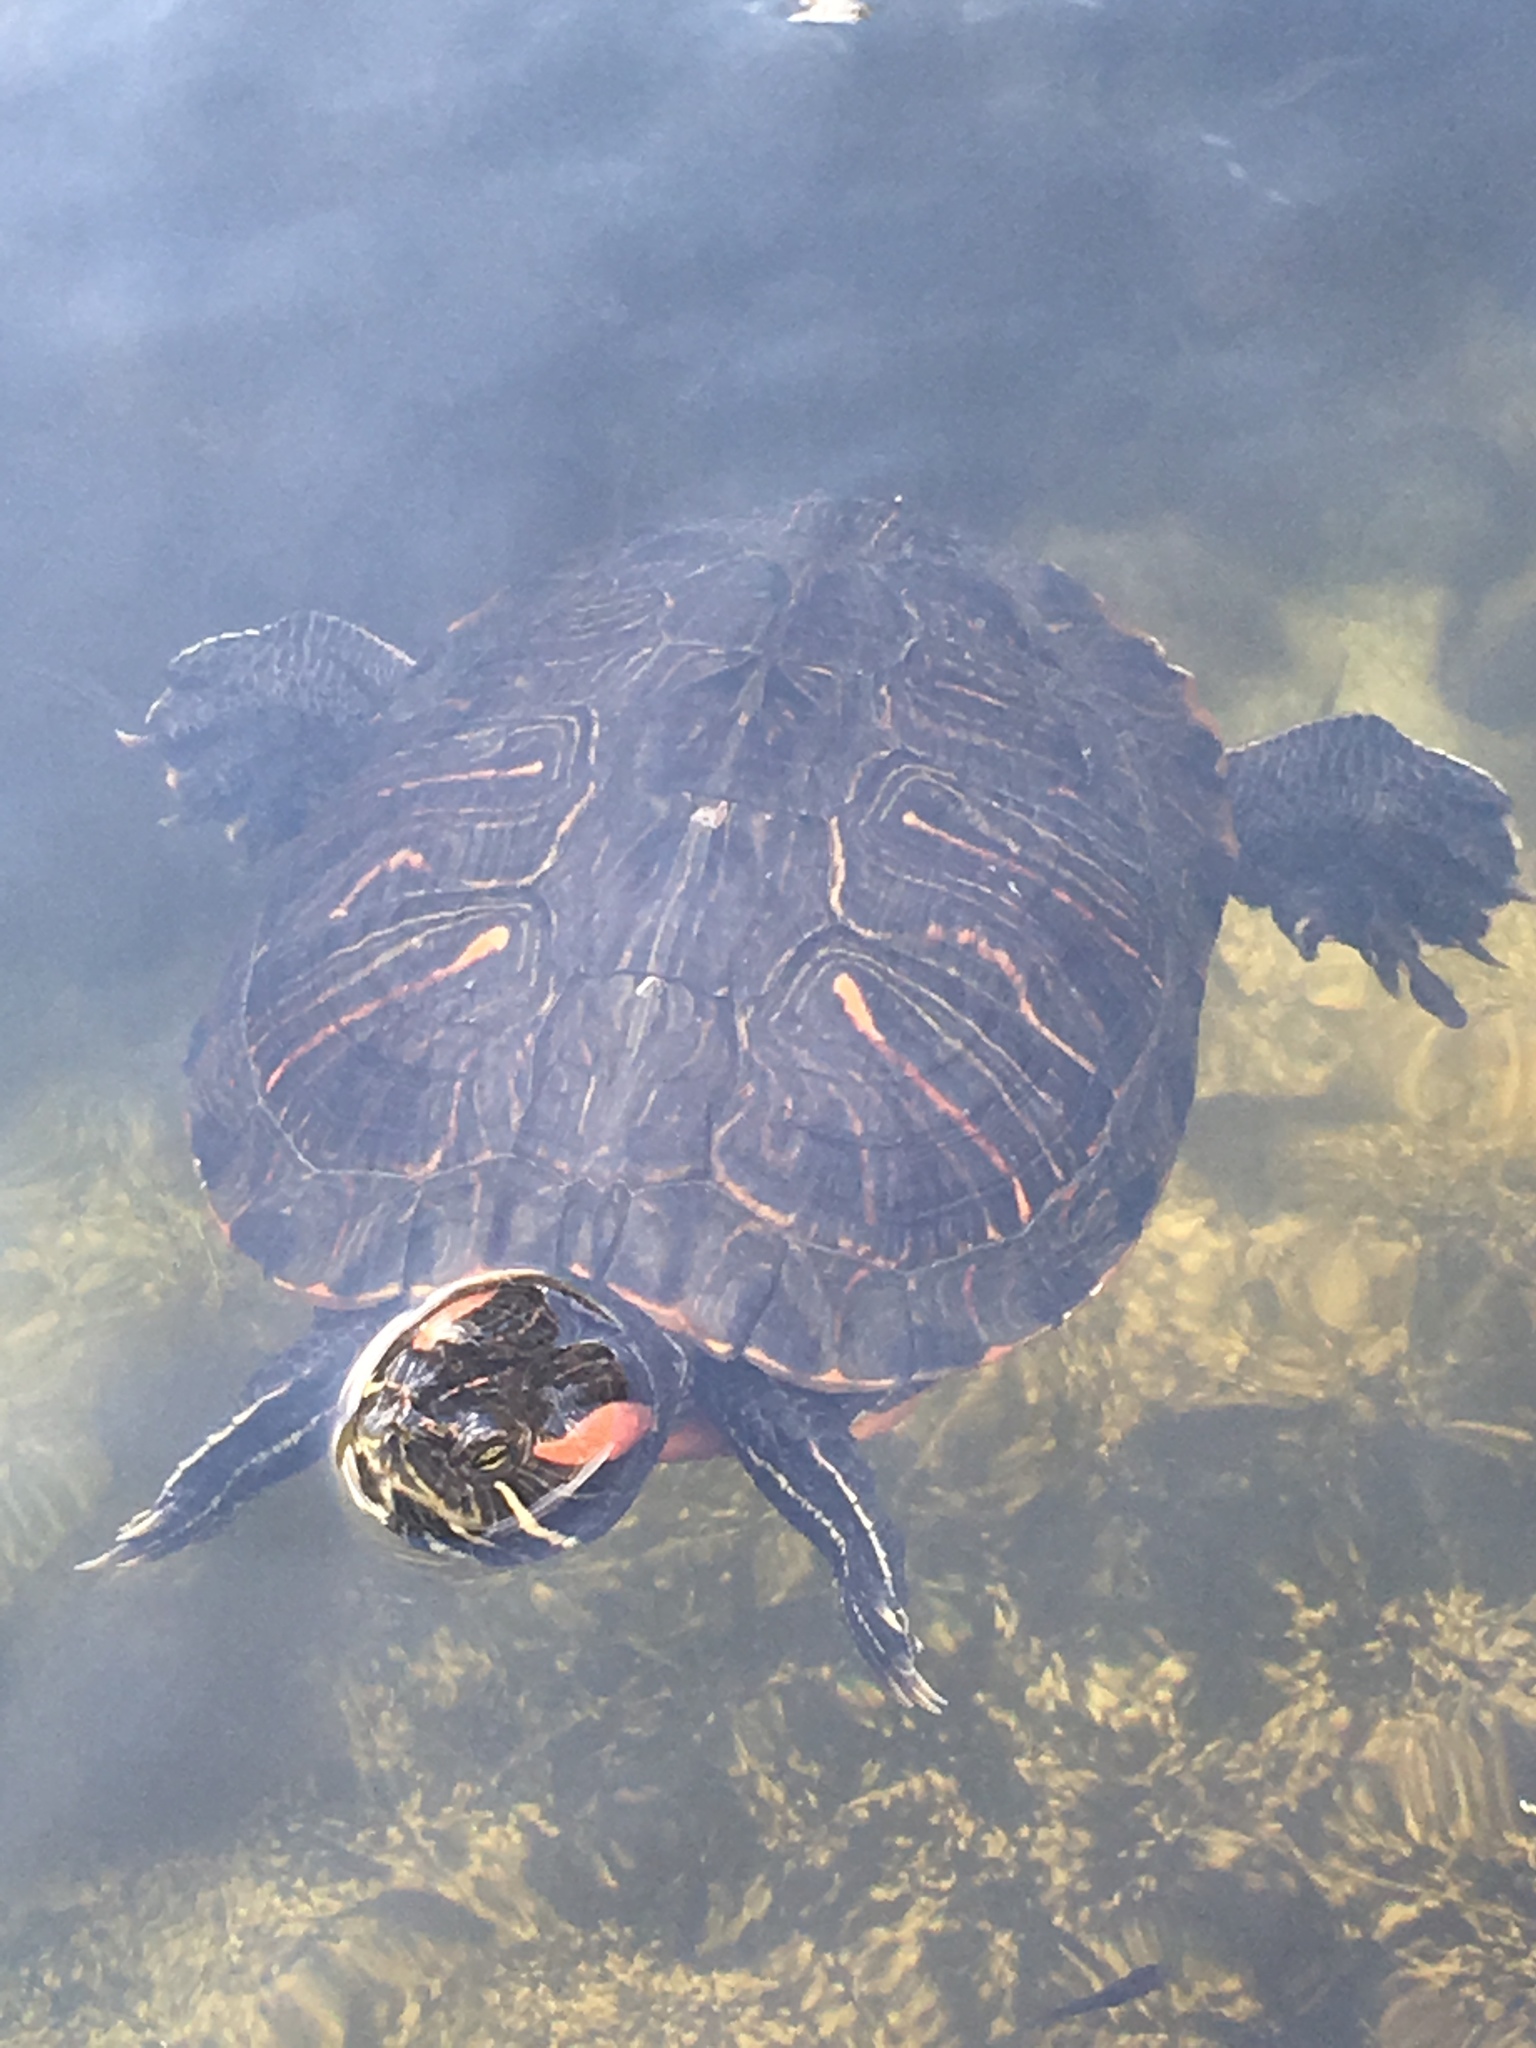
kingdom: Animalia
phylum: Chordata
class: Testudines
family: Emydidae
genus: Trachemys
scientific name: Trachemys scripta
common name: Slider
